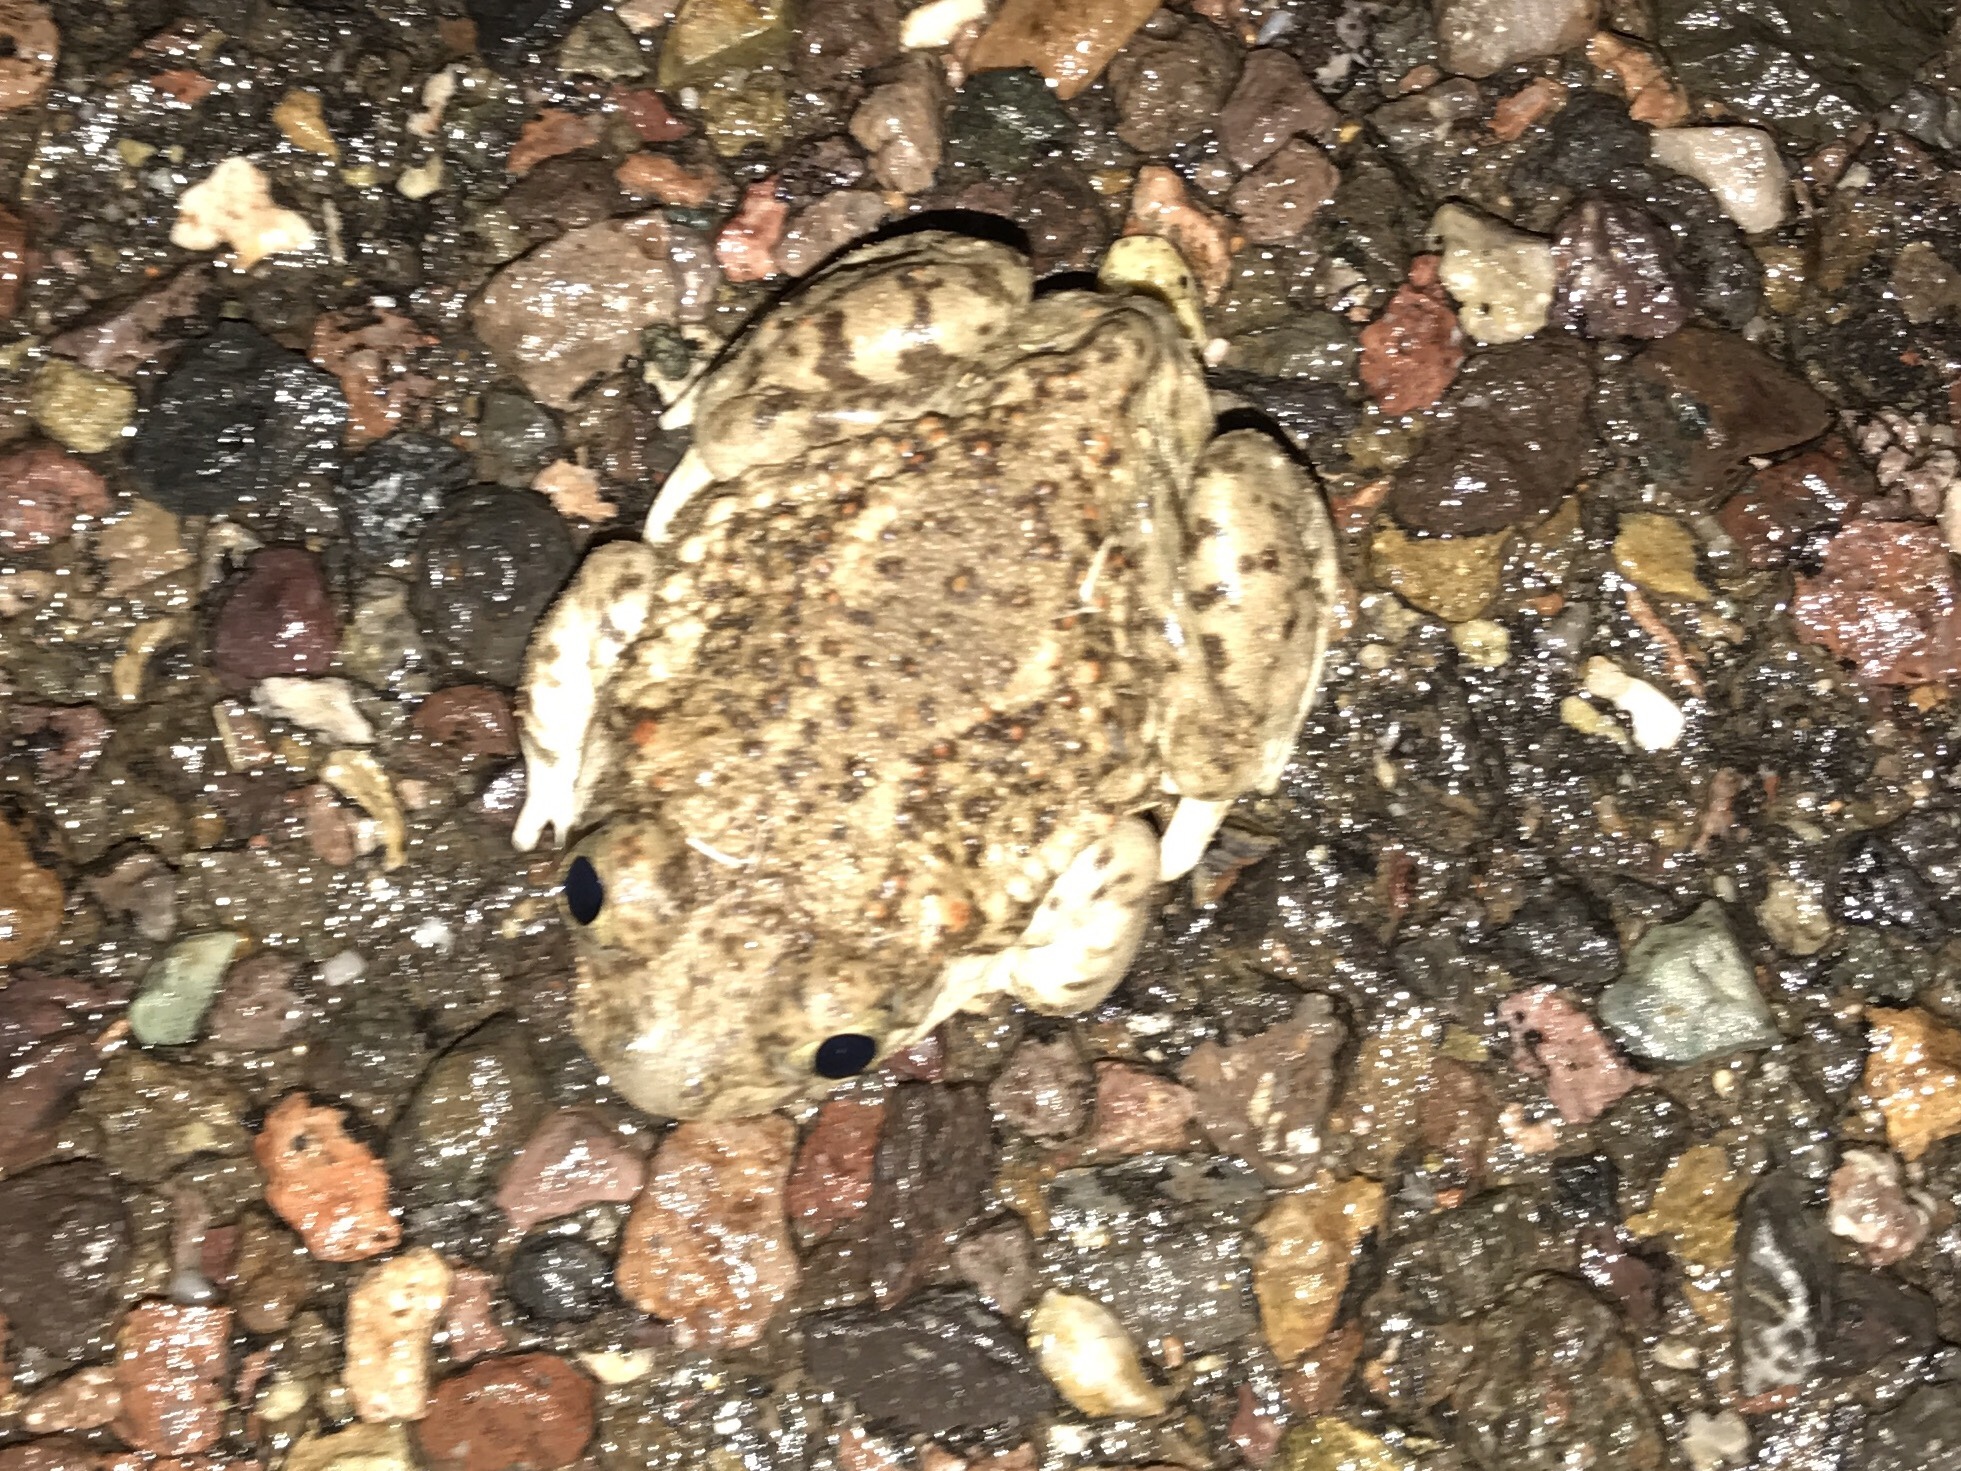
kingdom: Animalia
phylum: Chordata
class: Amphibia
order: Anura
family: Scaphiopodidae
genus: Spea
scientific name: Spea multiplicata
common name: Mexican spadefoot
